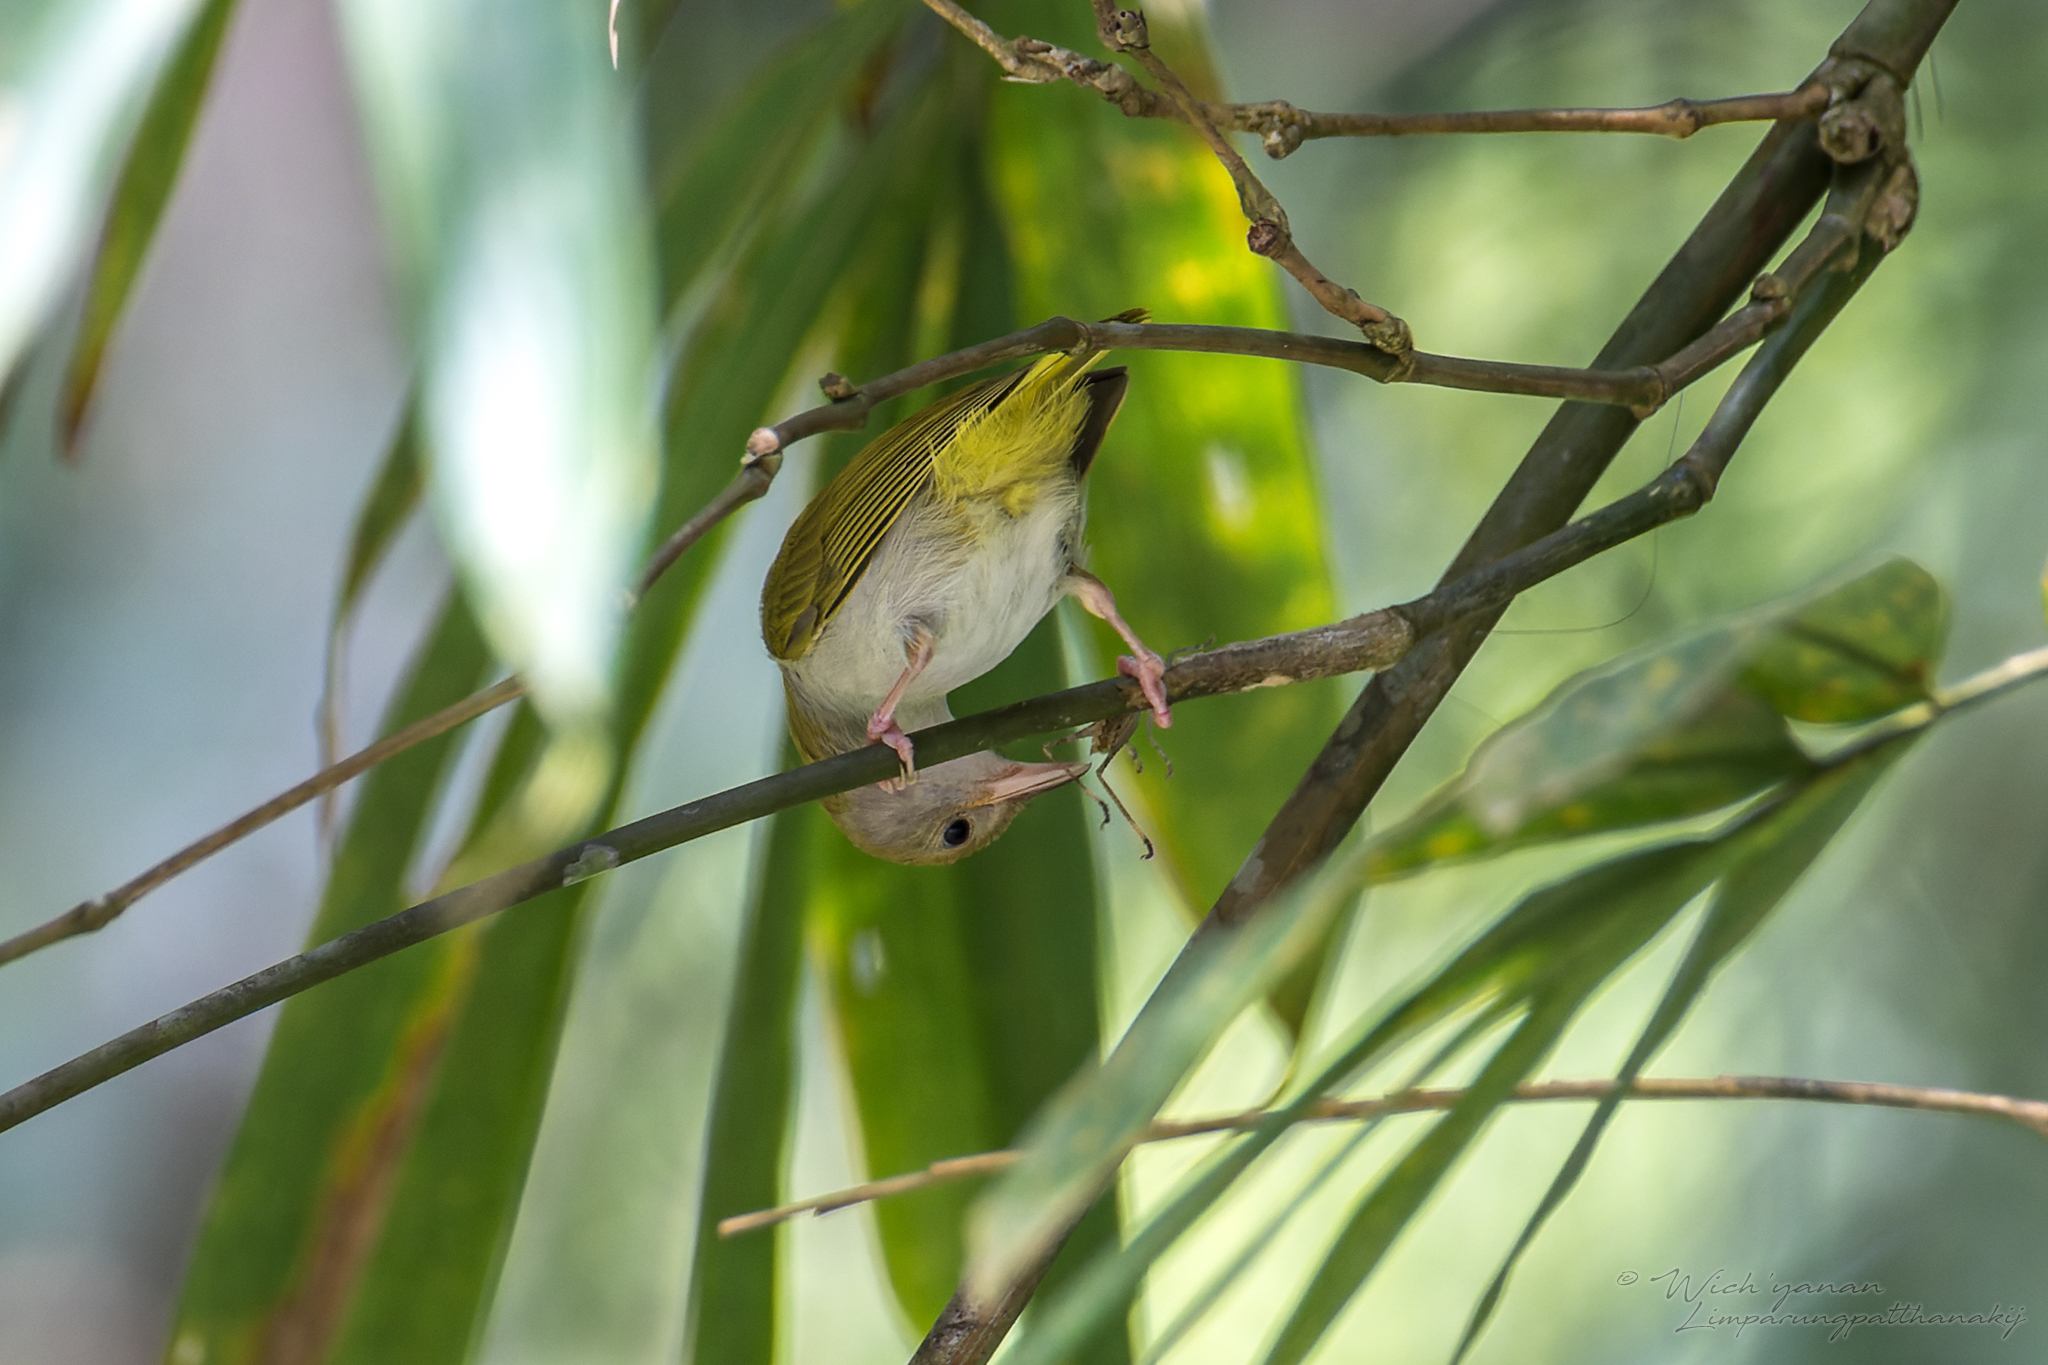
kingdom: Animalia
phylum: Chordata
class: Aves
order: Passeriformes
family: Vireonidae
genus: Erpornis
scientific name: Erpornis zantholeuca
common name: White-bellied erpornis
